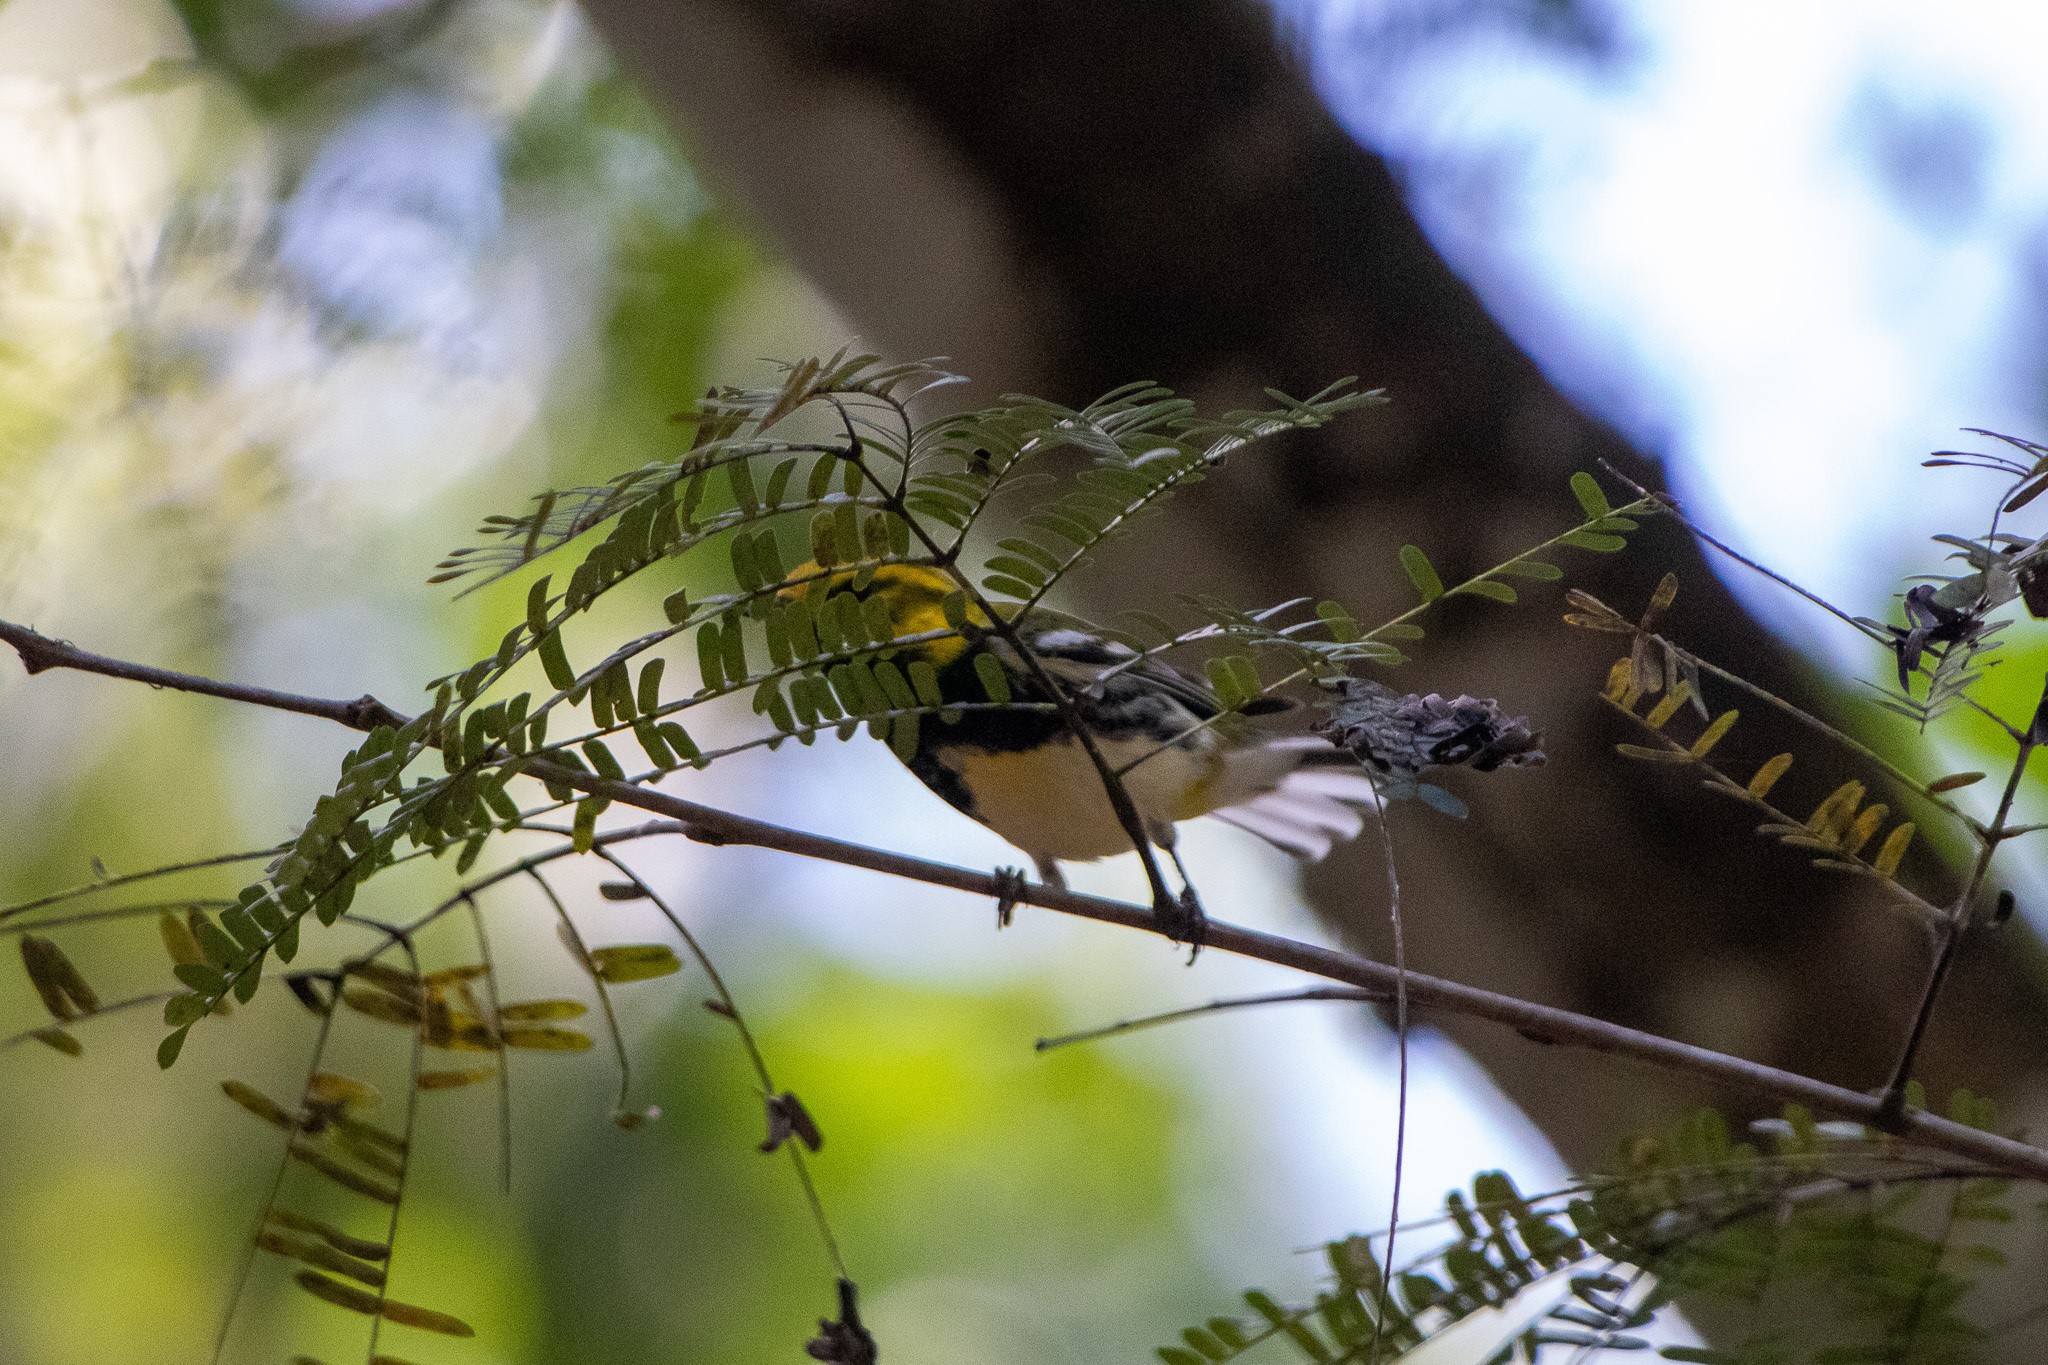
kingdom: Animalia
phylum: Chordata
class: Aves
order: Passeriformes
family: Parulidae
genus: Setophaga
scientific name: Setophaga virens
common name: Black-throated green warbler
